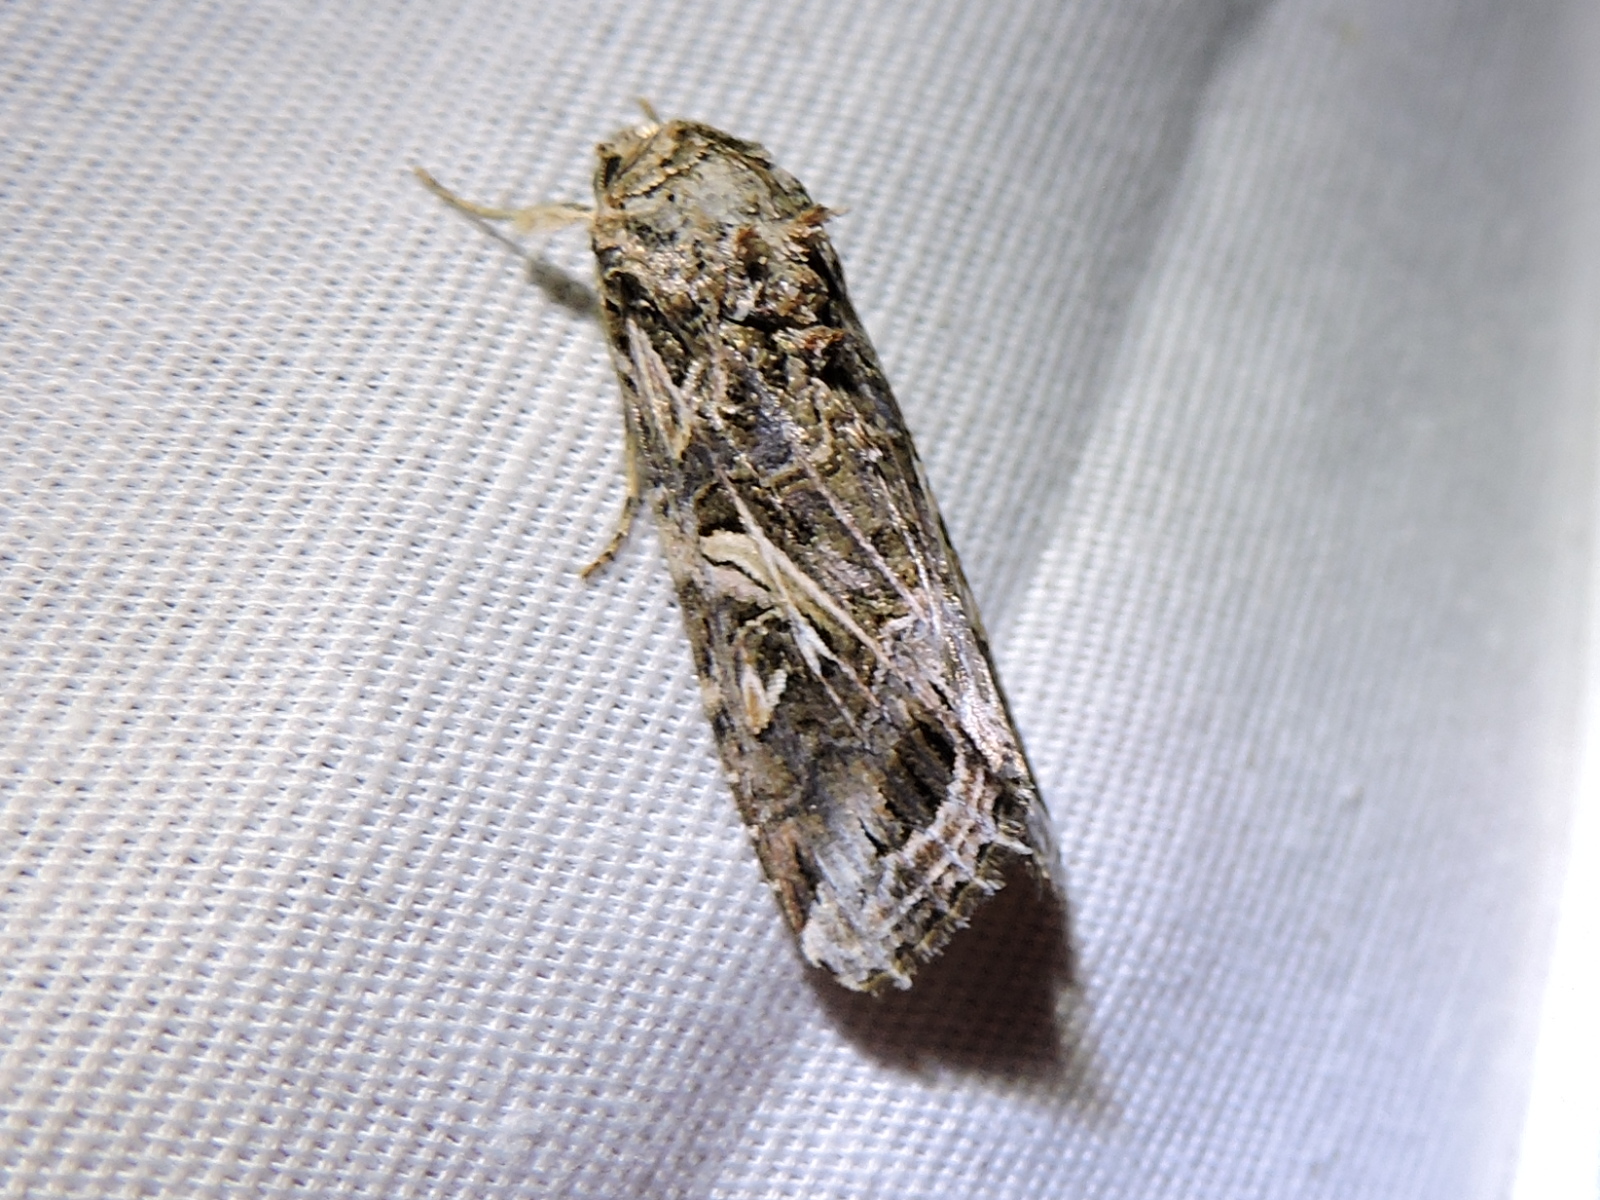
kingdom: Animalia
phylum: Arthropoda
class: Insecta
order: Lepidoptera
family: Noctuidae
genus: Spodoptera
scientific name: Spodoptera ornithogalli
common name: Yellow-striped armyworm
